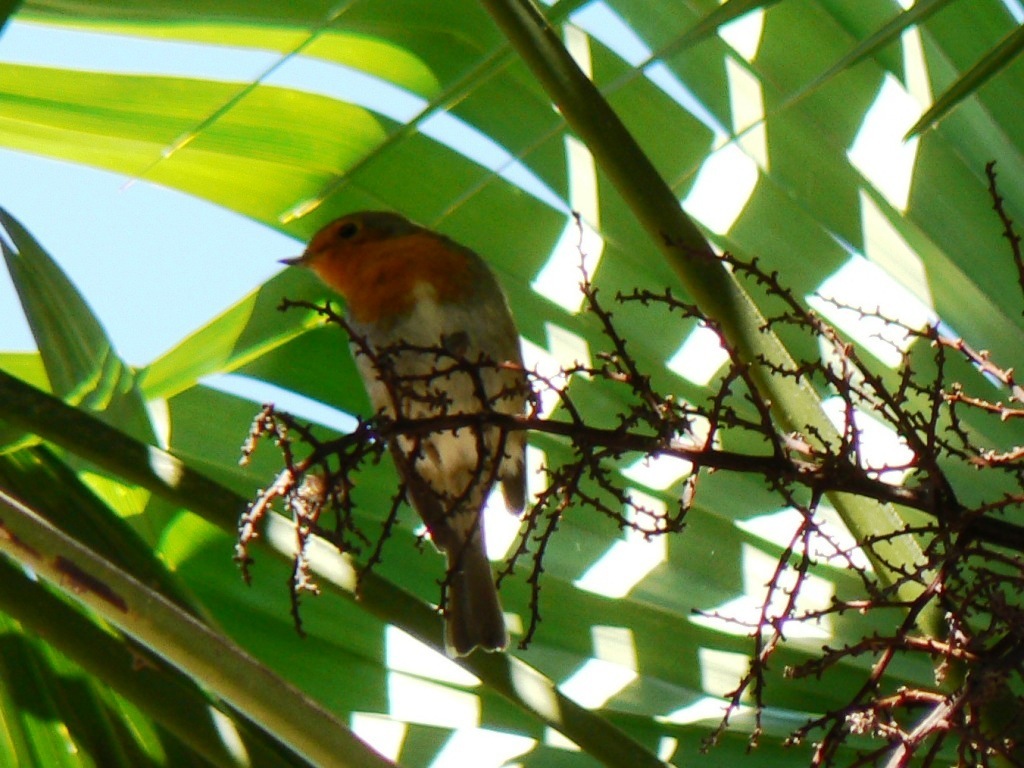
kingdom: Animalia
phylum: Chordata
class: Aves
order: Passeriformes
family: Muscicapidae
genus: Erithacus
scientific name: Erithacus rubecula
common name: European robin
